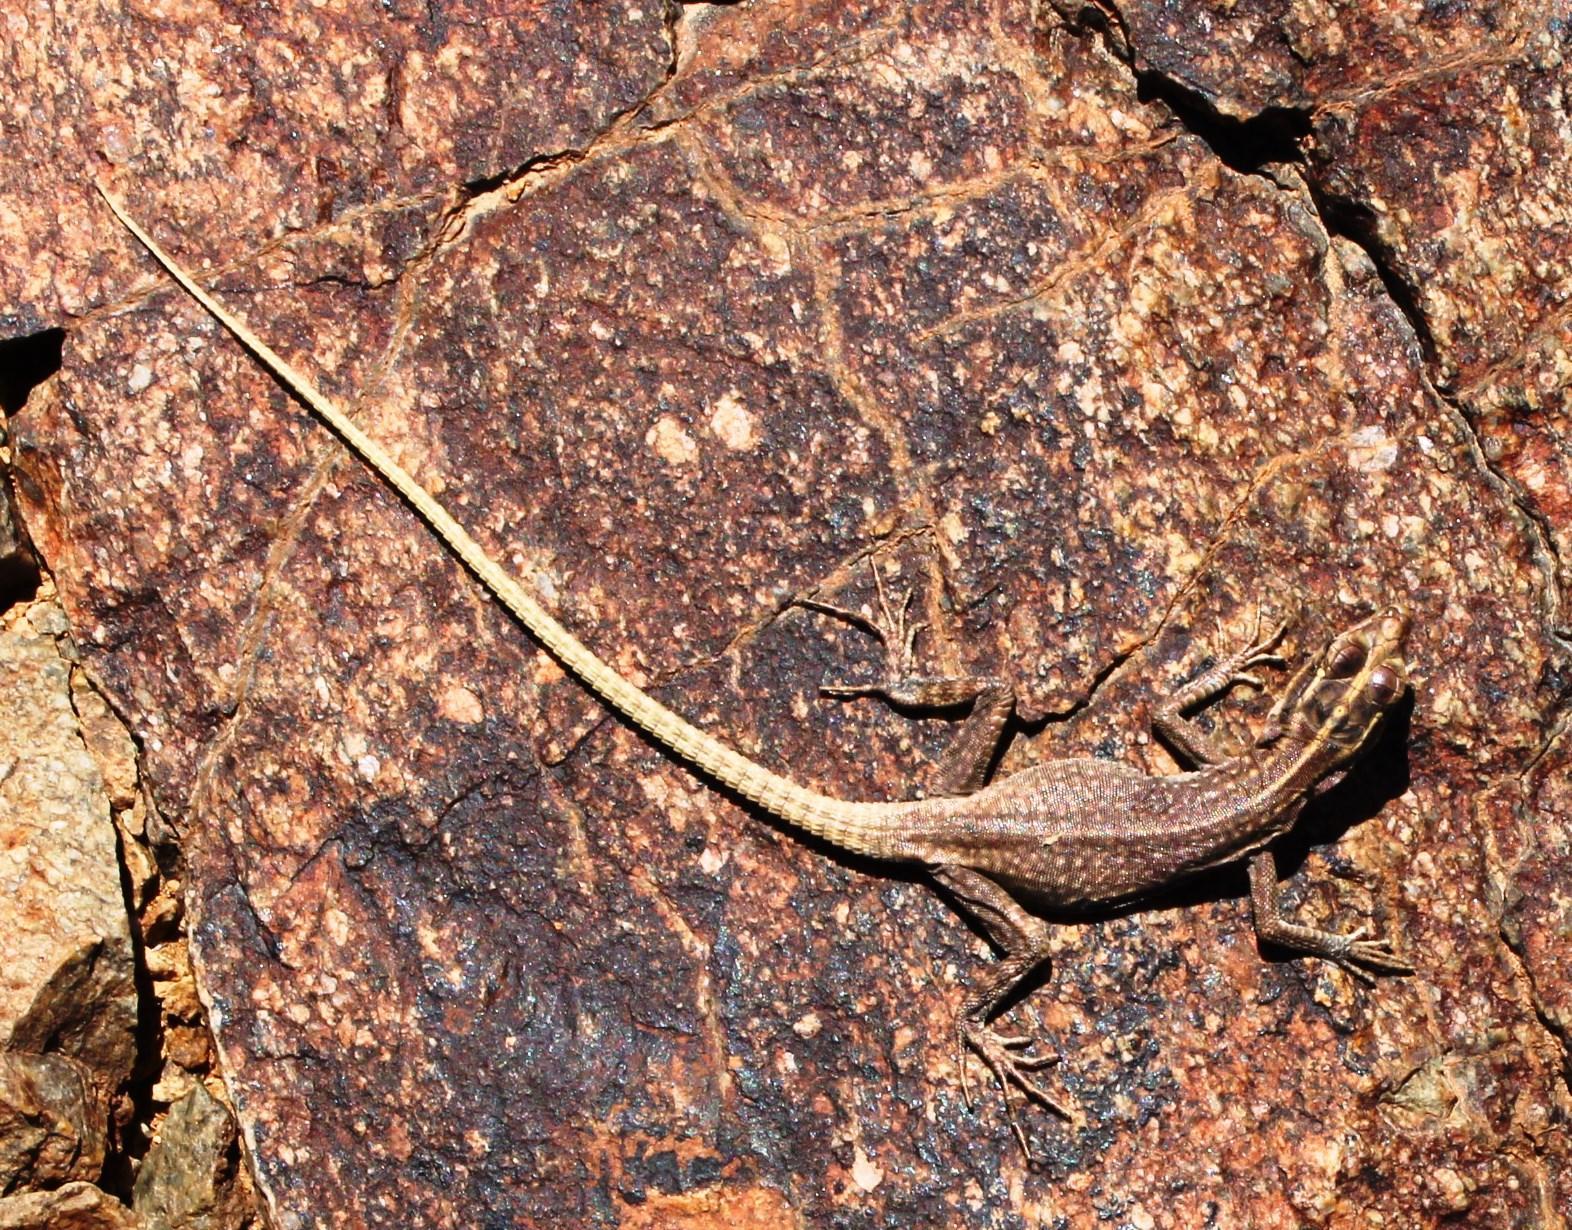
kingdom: Animalia
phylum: Chordata
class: Squamata
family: Cordylidae
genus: Platysaurus
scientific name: Platysaurus attenboroughi
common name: Attenborough’s flat lizard
